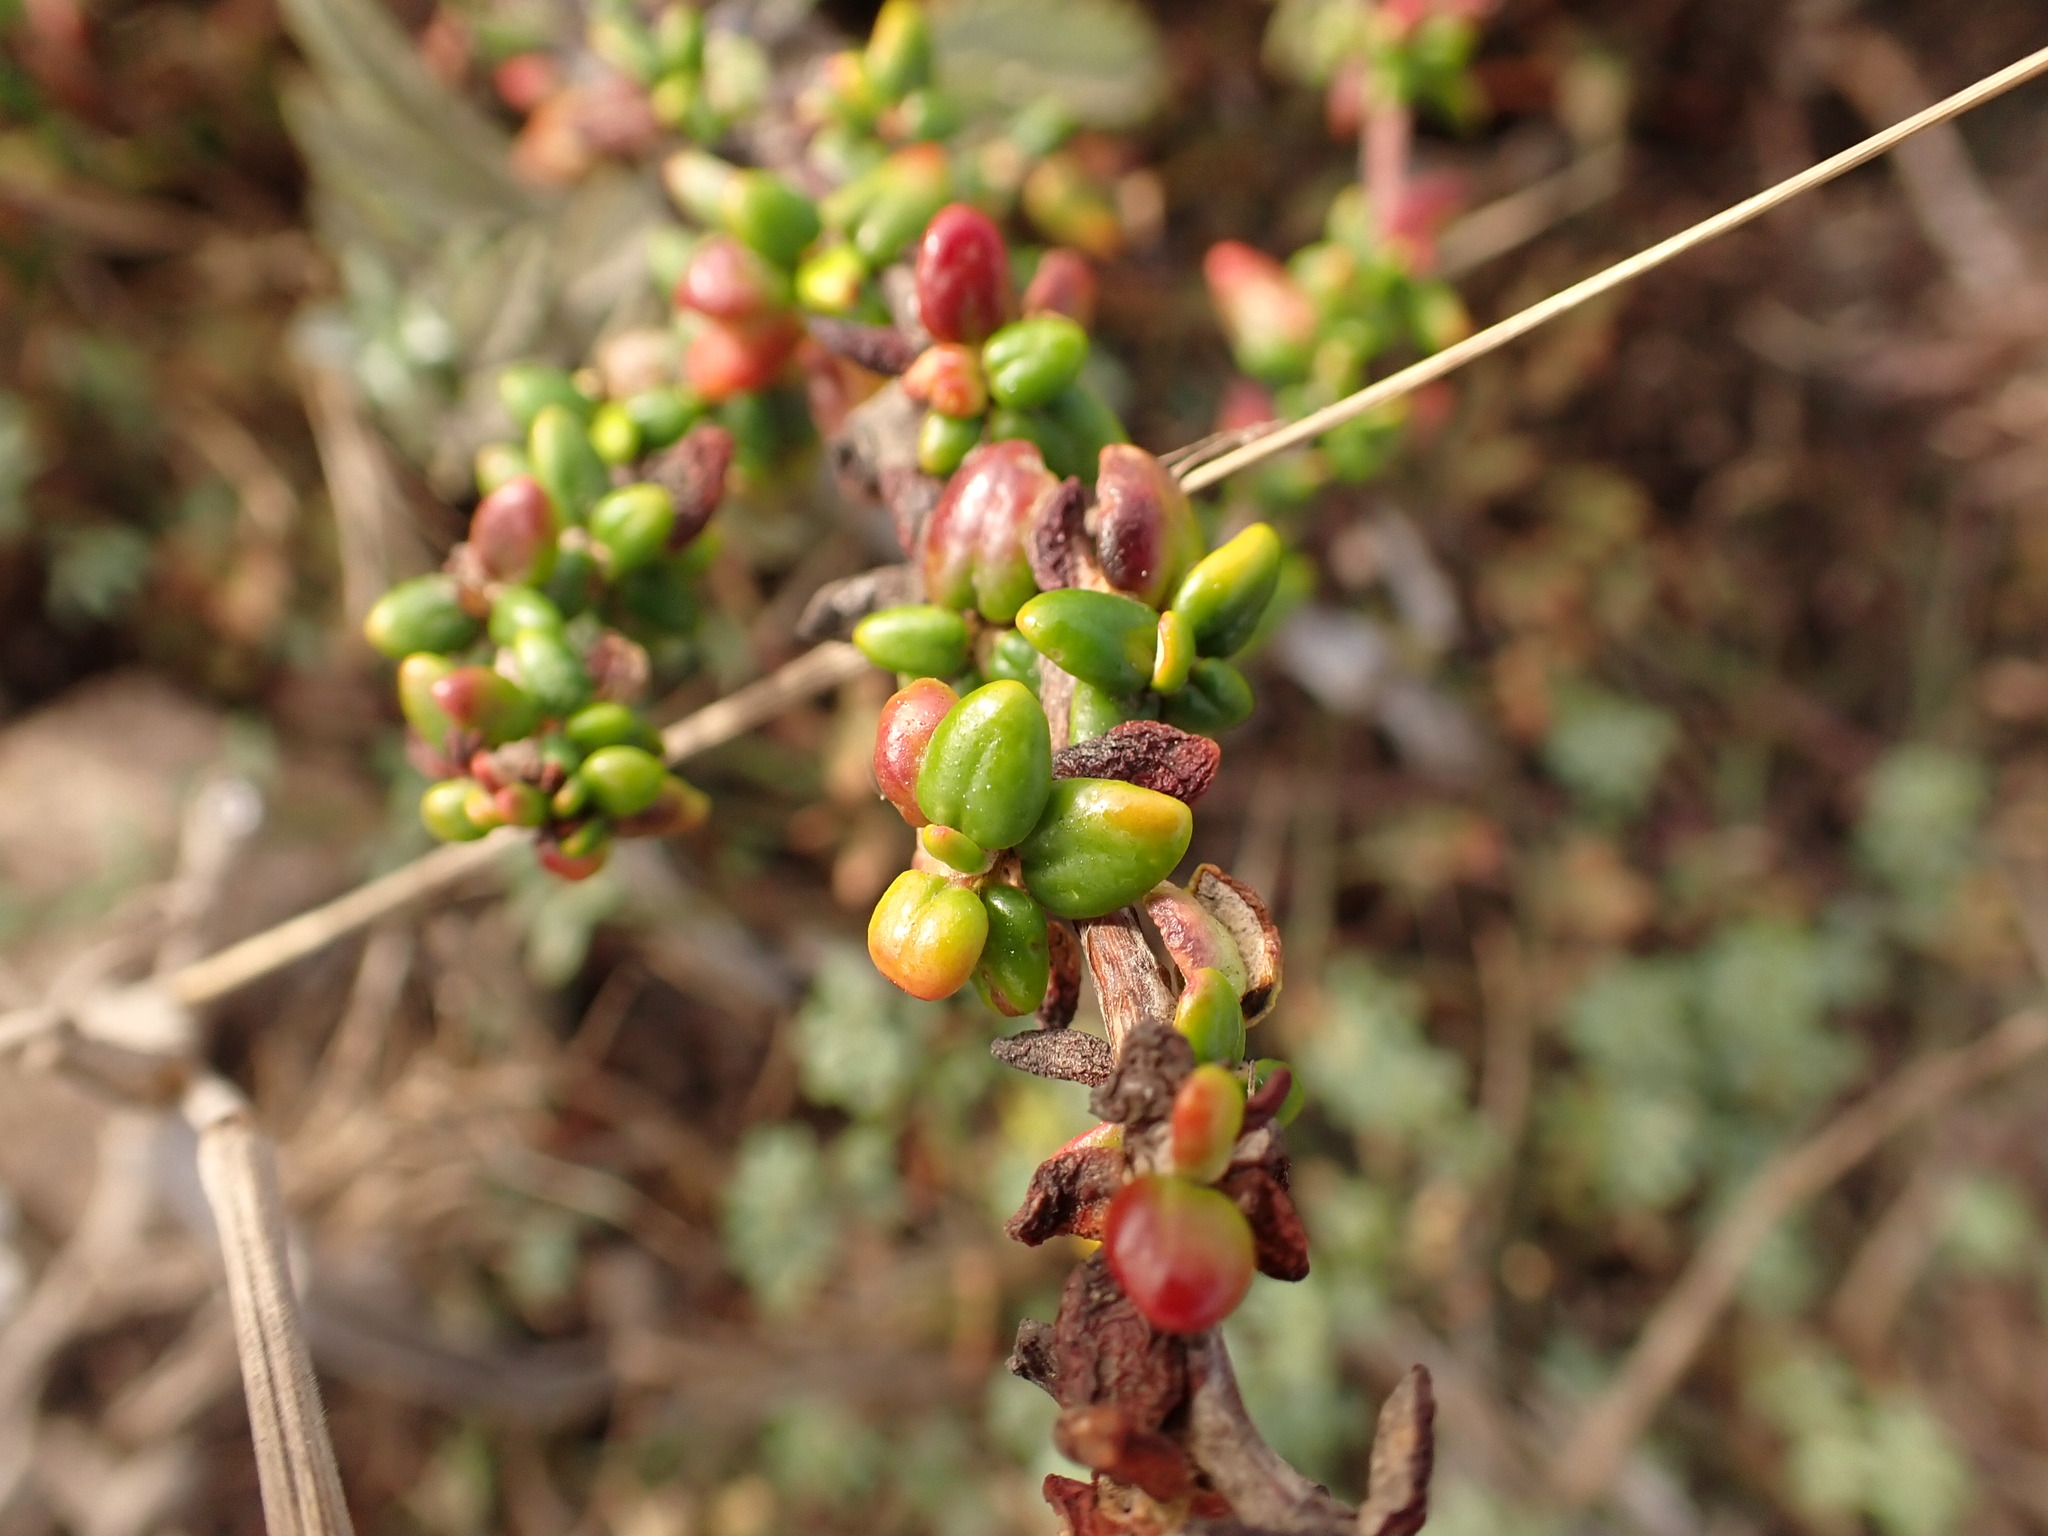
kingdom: Plantae
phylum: Tracheophyta
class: Magnoliopsida
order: Caryophyllales
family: Polygonaceae
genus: Eriogonum
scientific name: Eriogonum parvifolium
